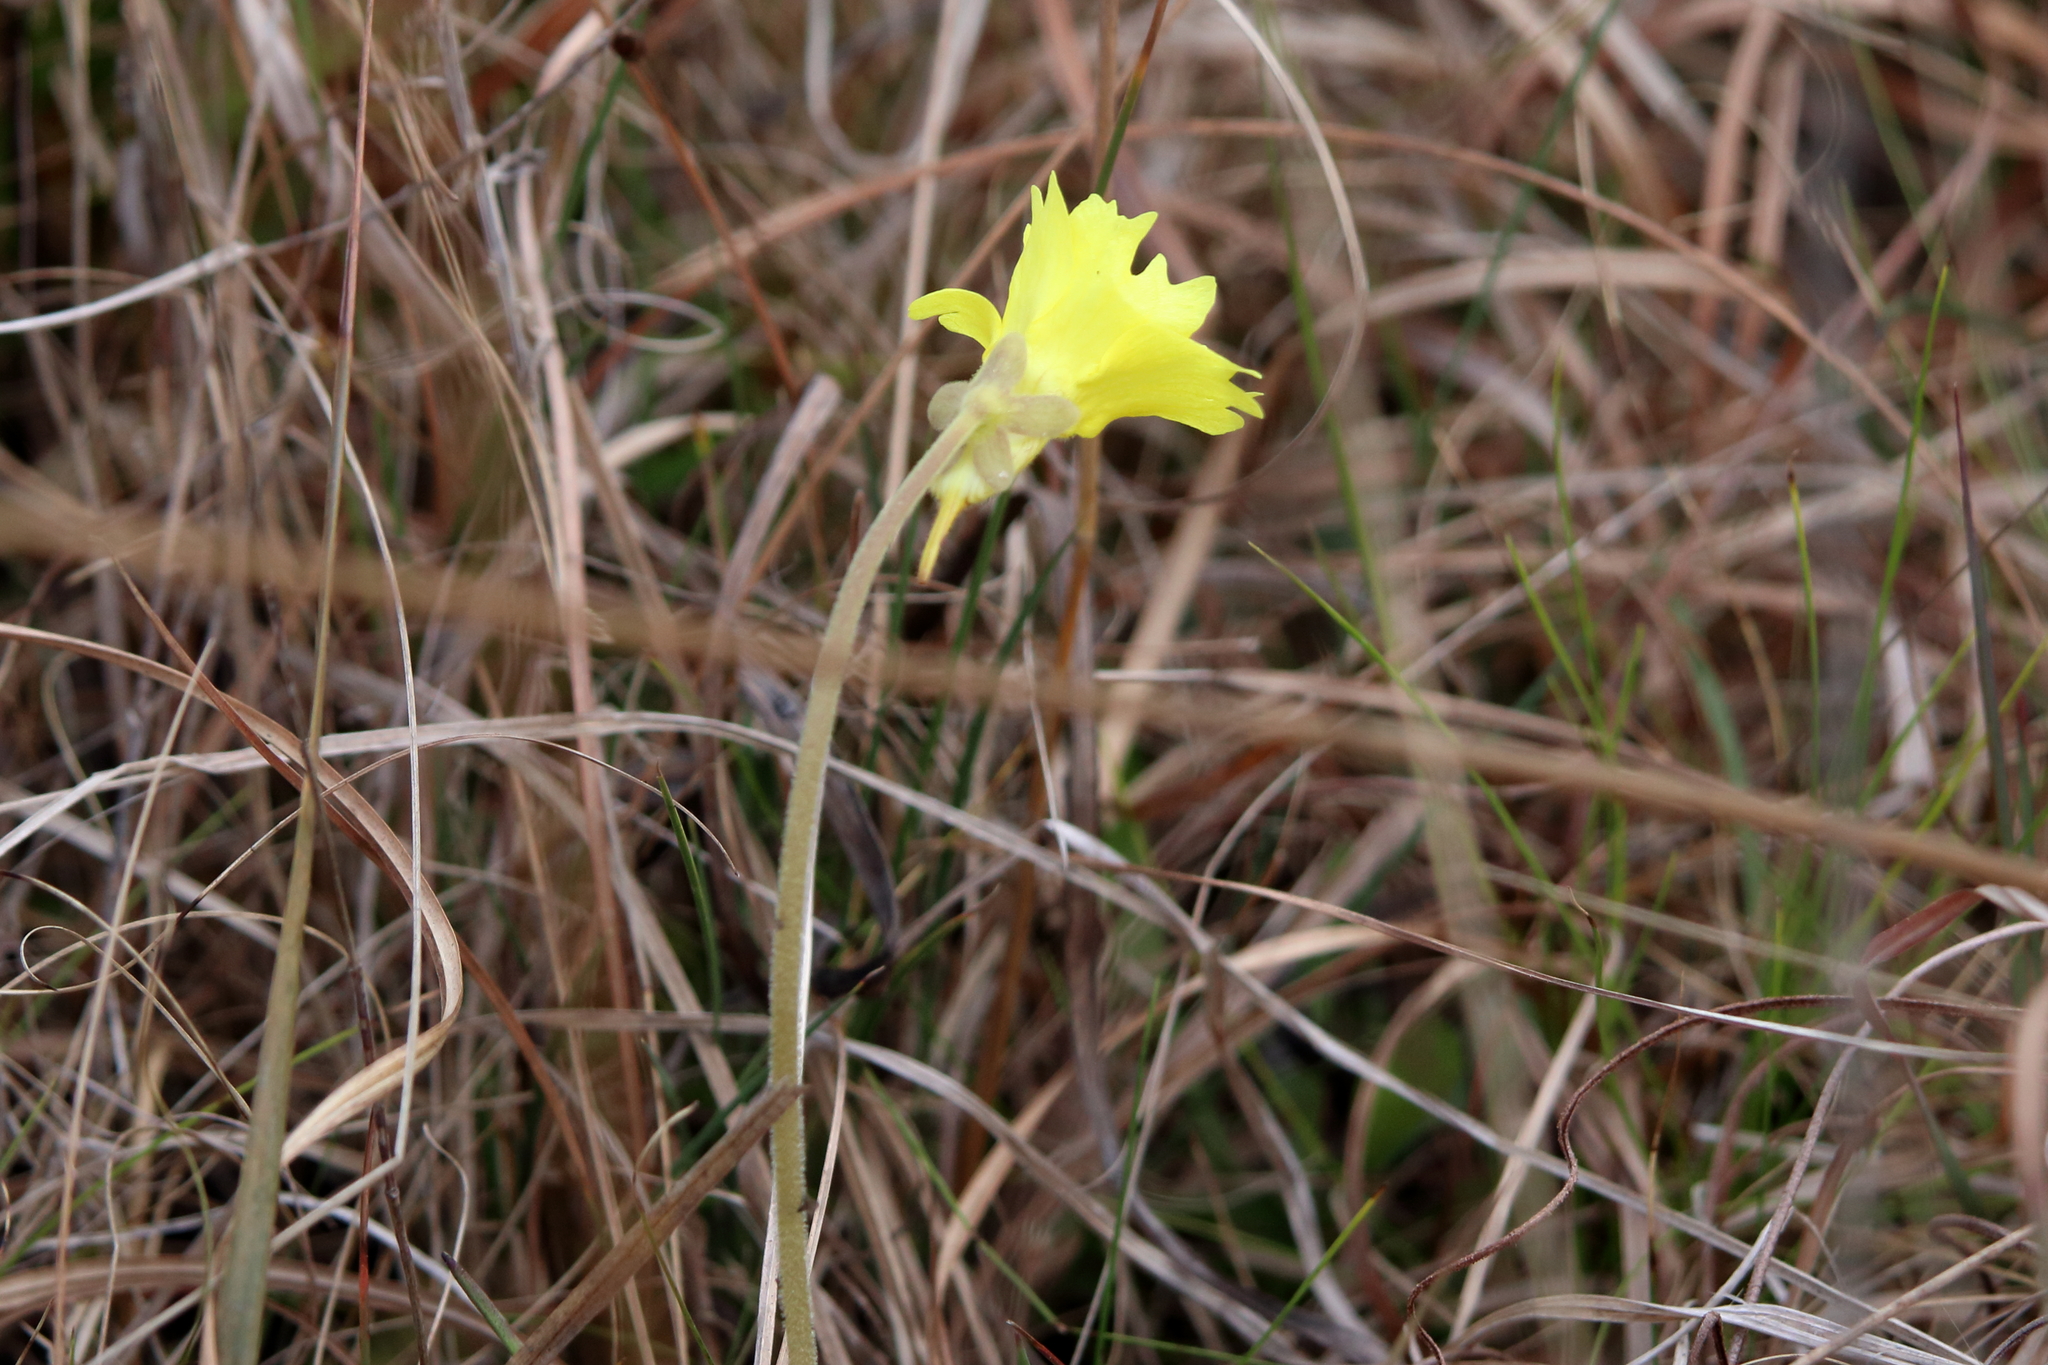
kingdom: Plantae
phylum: Tracheophyta
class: Magnoliopsida
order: Lamiales
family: Lentibulariaceae
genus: Pinguicula
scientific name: Pinguicula lutea
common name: Yellow butterwort
